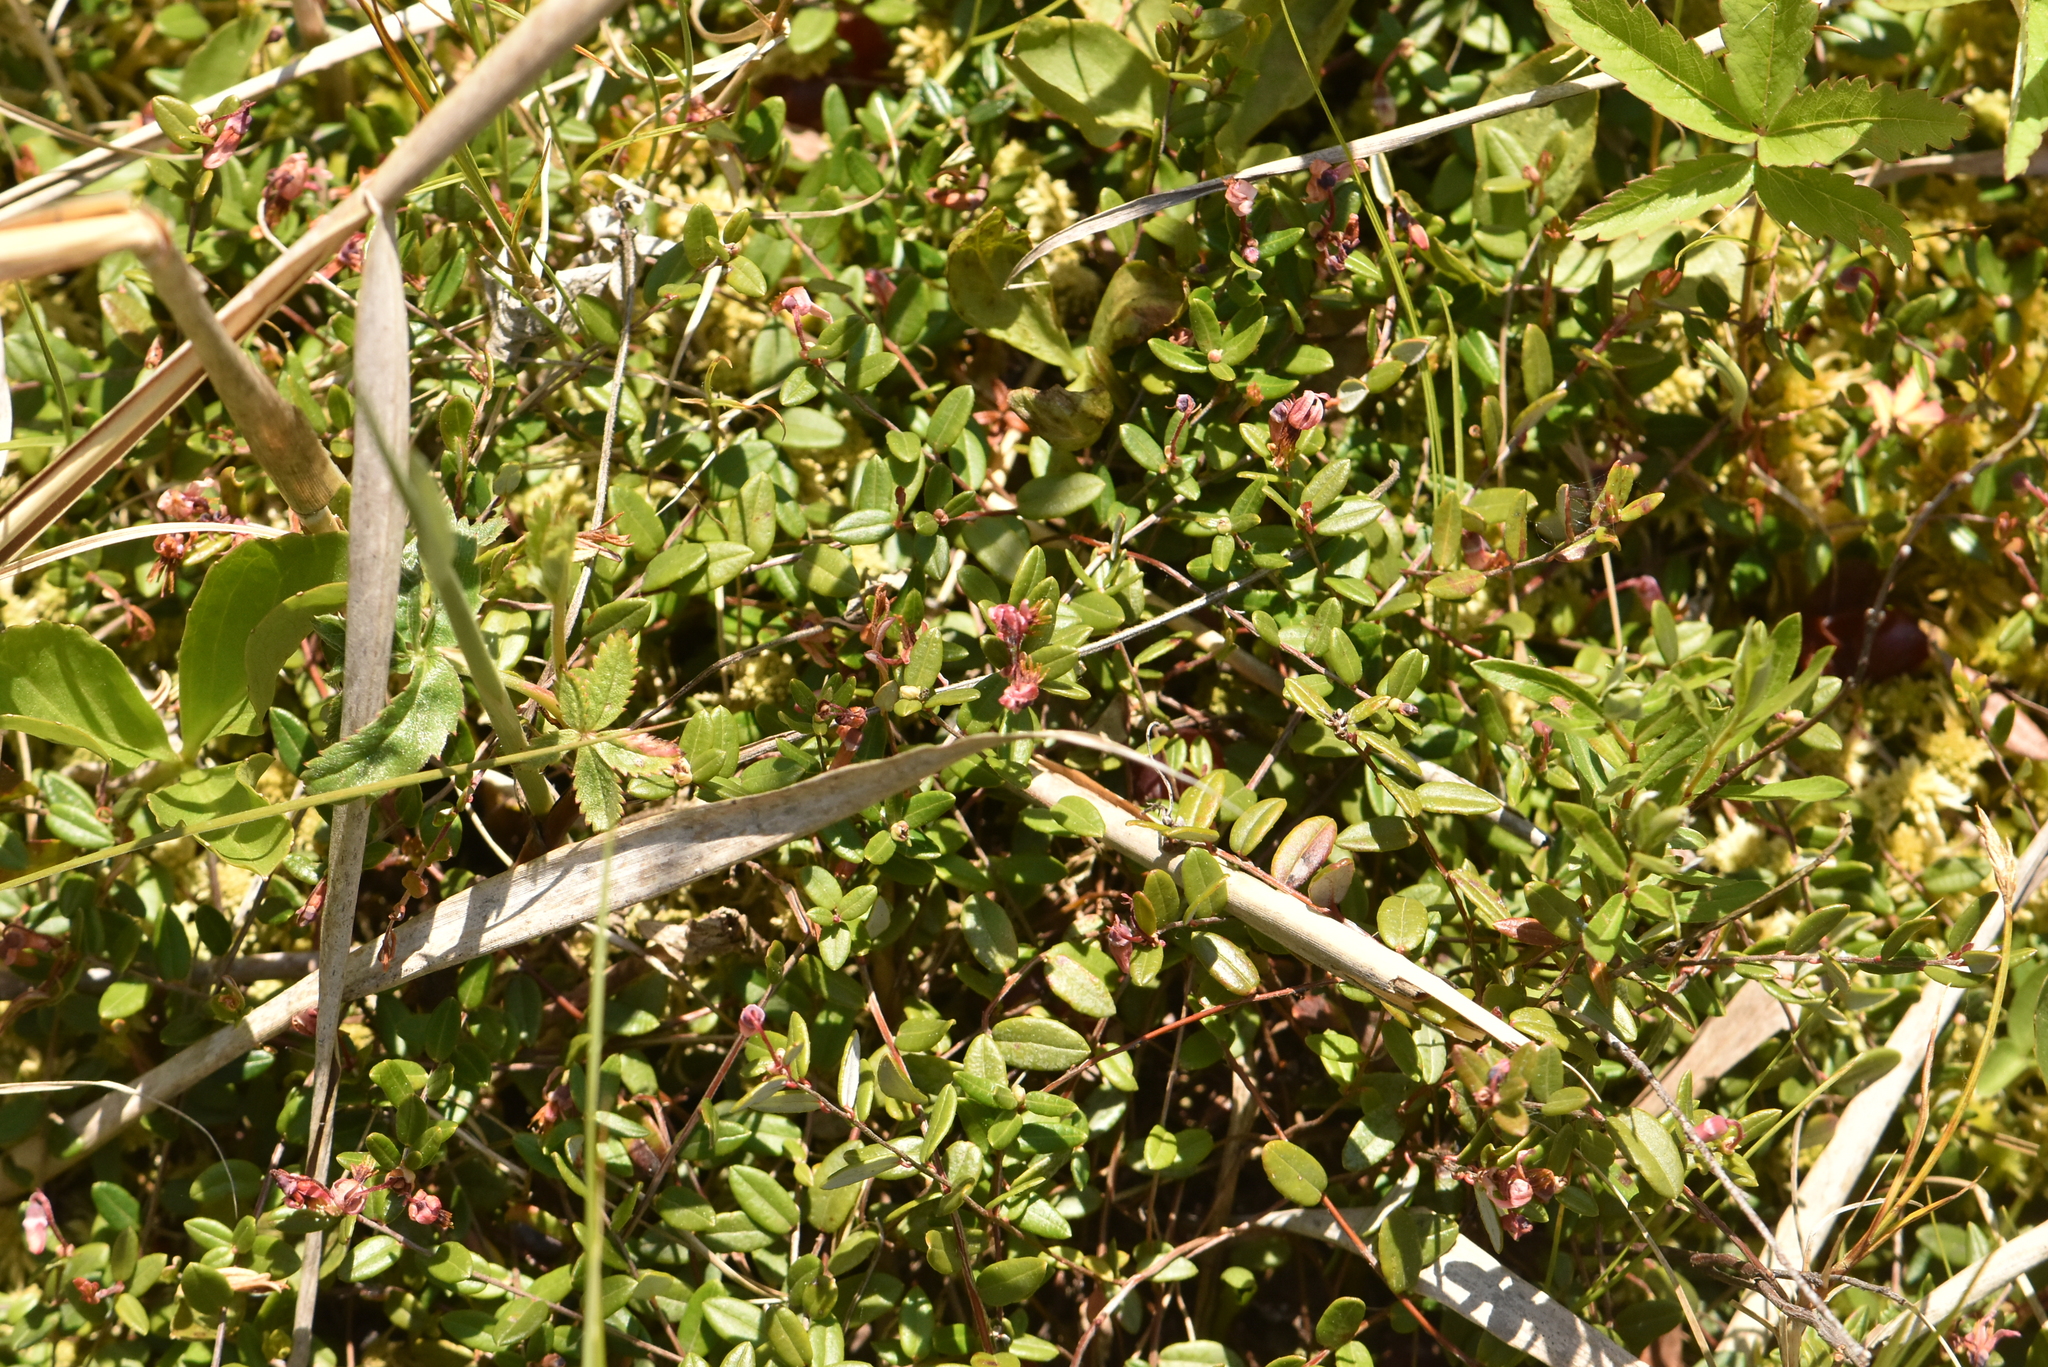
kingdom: Plantae
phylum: Tracheophyta
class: Magnoliopsida
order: Ericales
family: Ericaceae
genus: Vaccinium
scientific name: Vaccinium oxycoccos
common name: Cranberry
